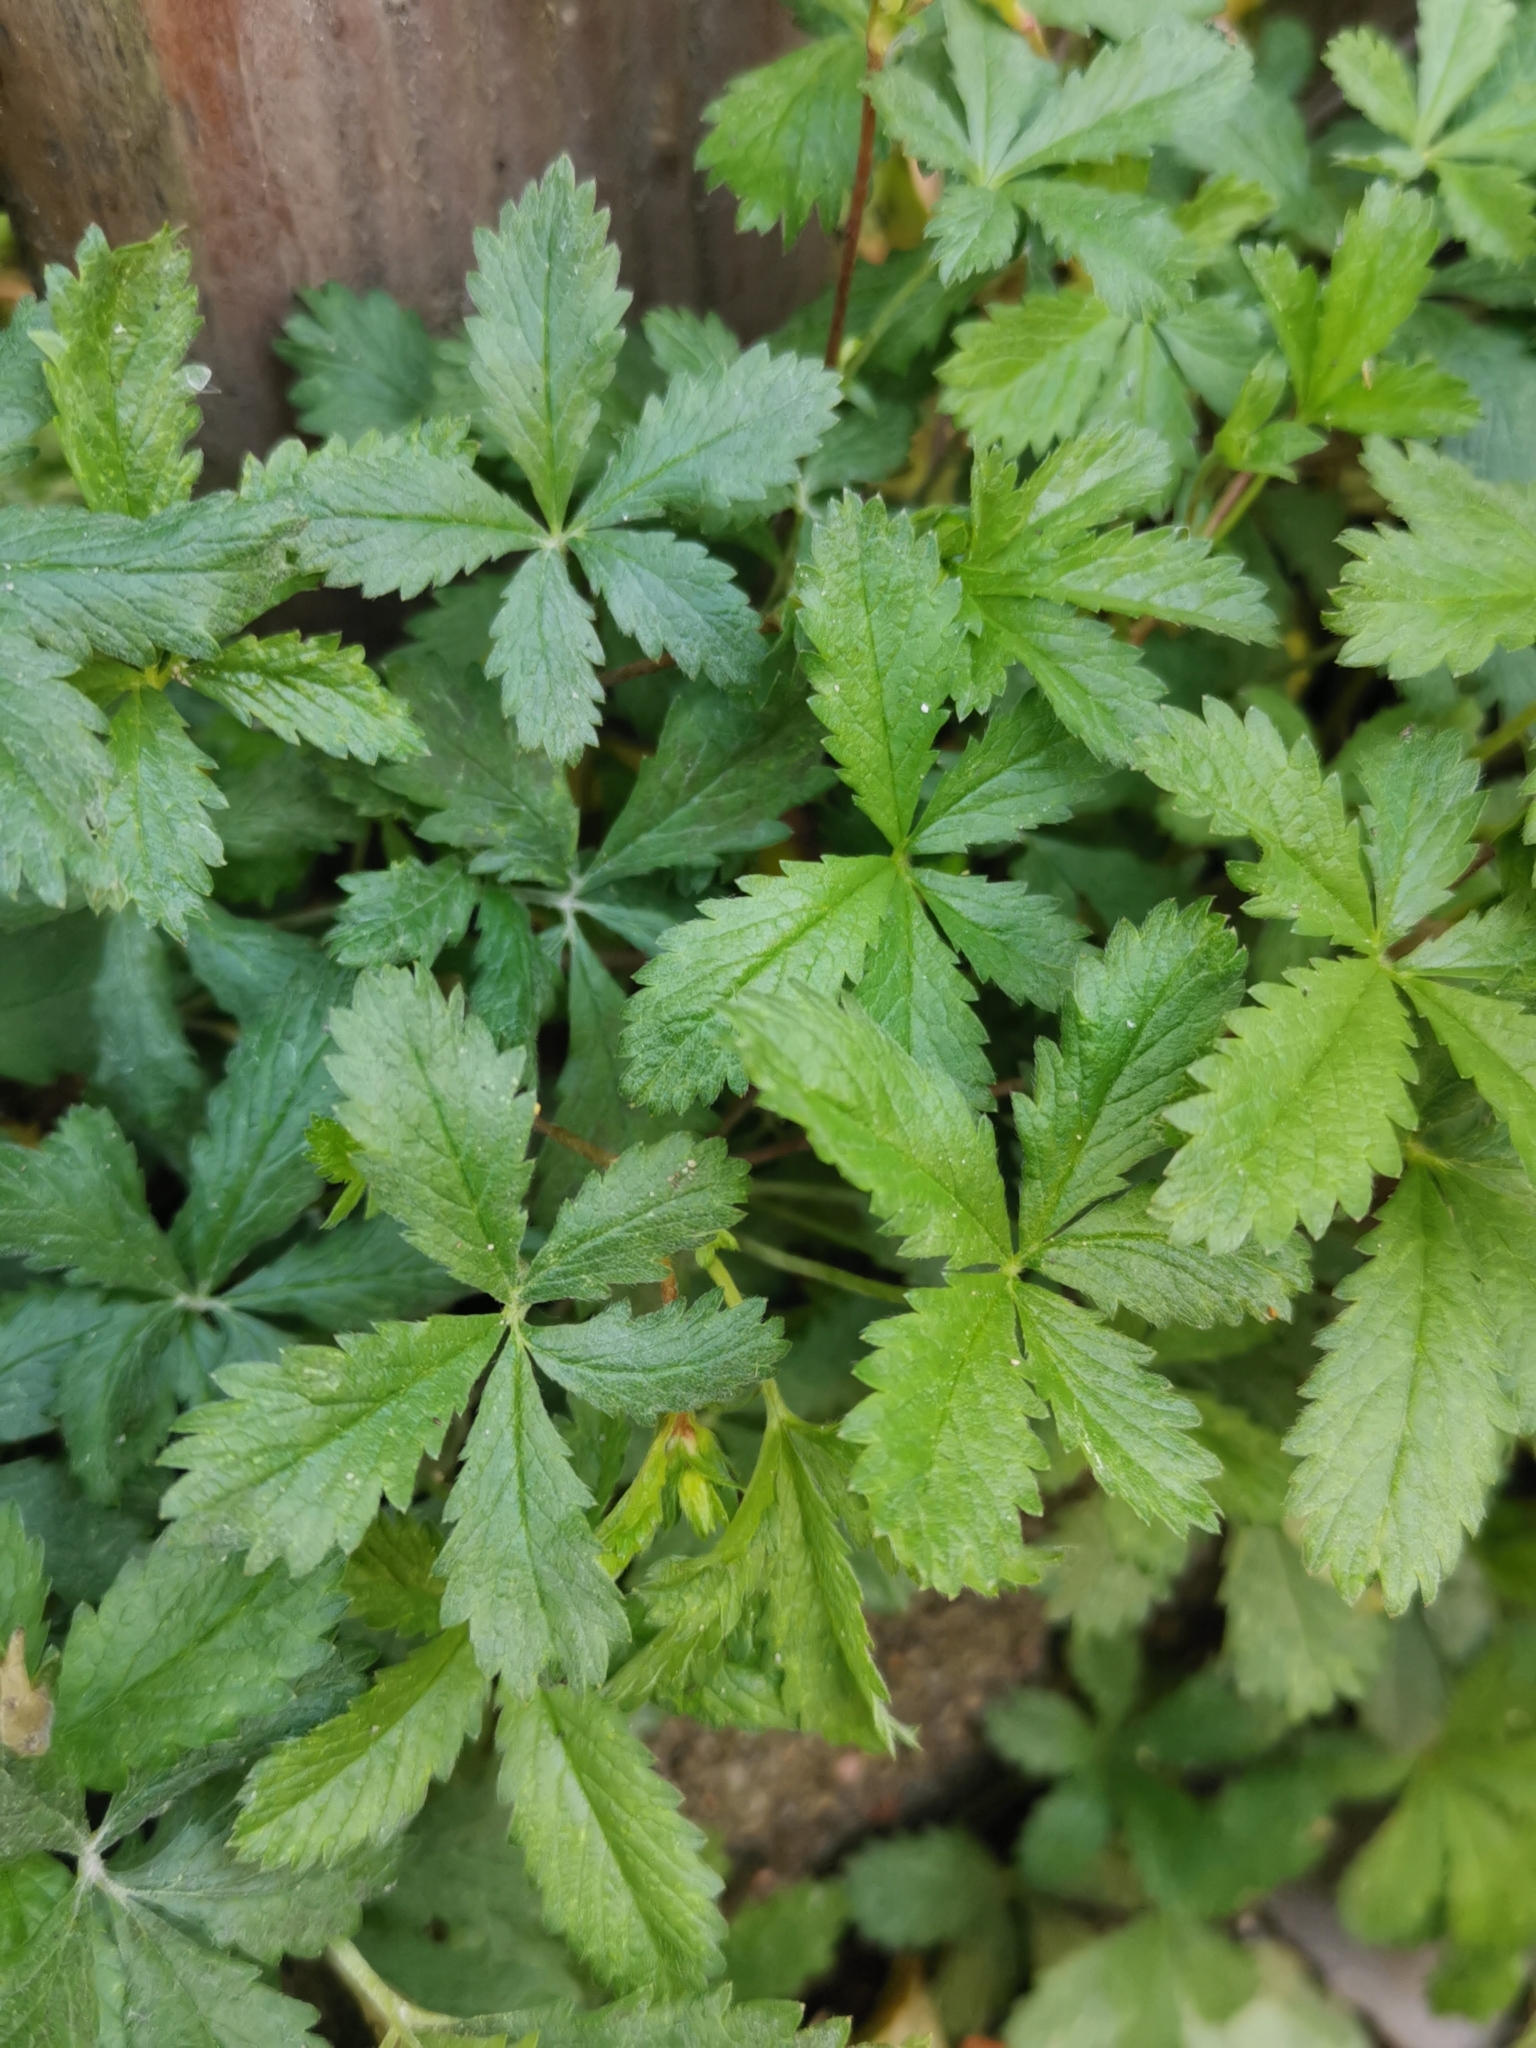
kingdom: Plantae
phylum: Tracheophyta
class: Magnoliopsida
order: Rosales
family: Rosaceae
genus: Potentilla
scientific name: Potentilla reptans
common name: Creeping cinquefoil
